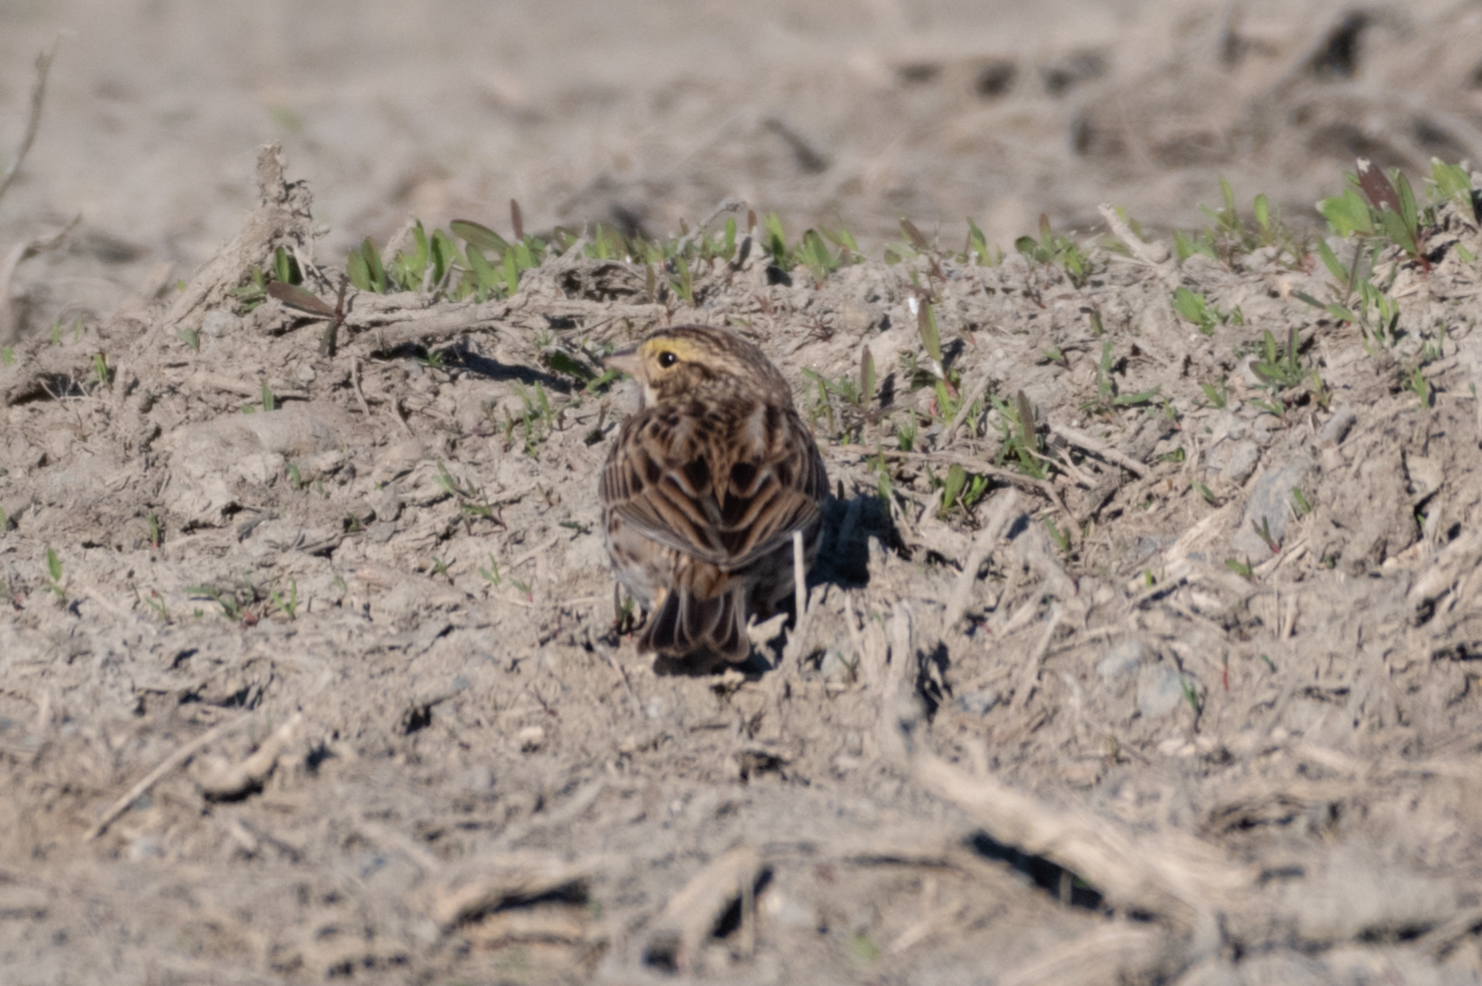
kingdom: Animalia
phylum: Chordata
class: Aves
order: Passeriformes
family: Passerellidae
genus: Passerculus
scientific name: Passerculus sandwichensis
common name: Savannah sparrow
